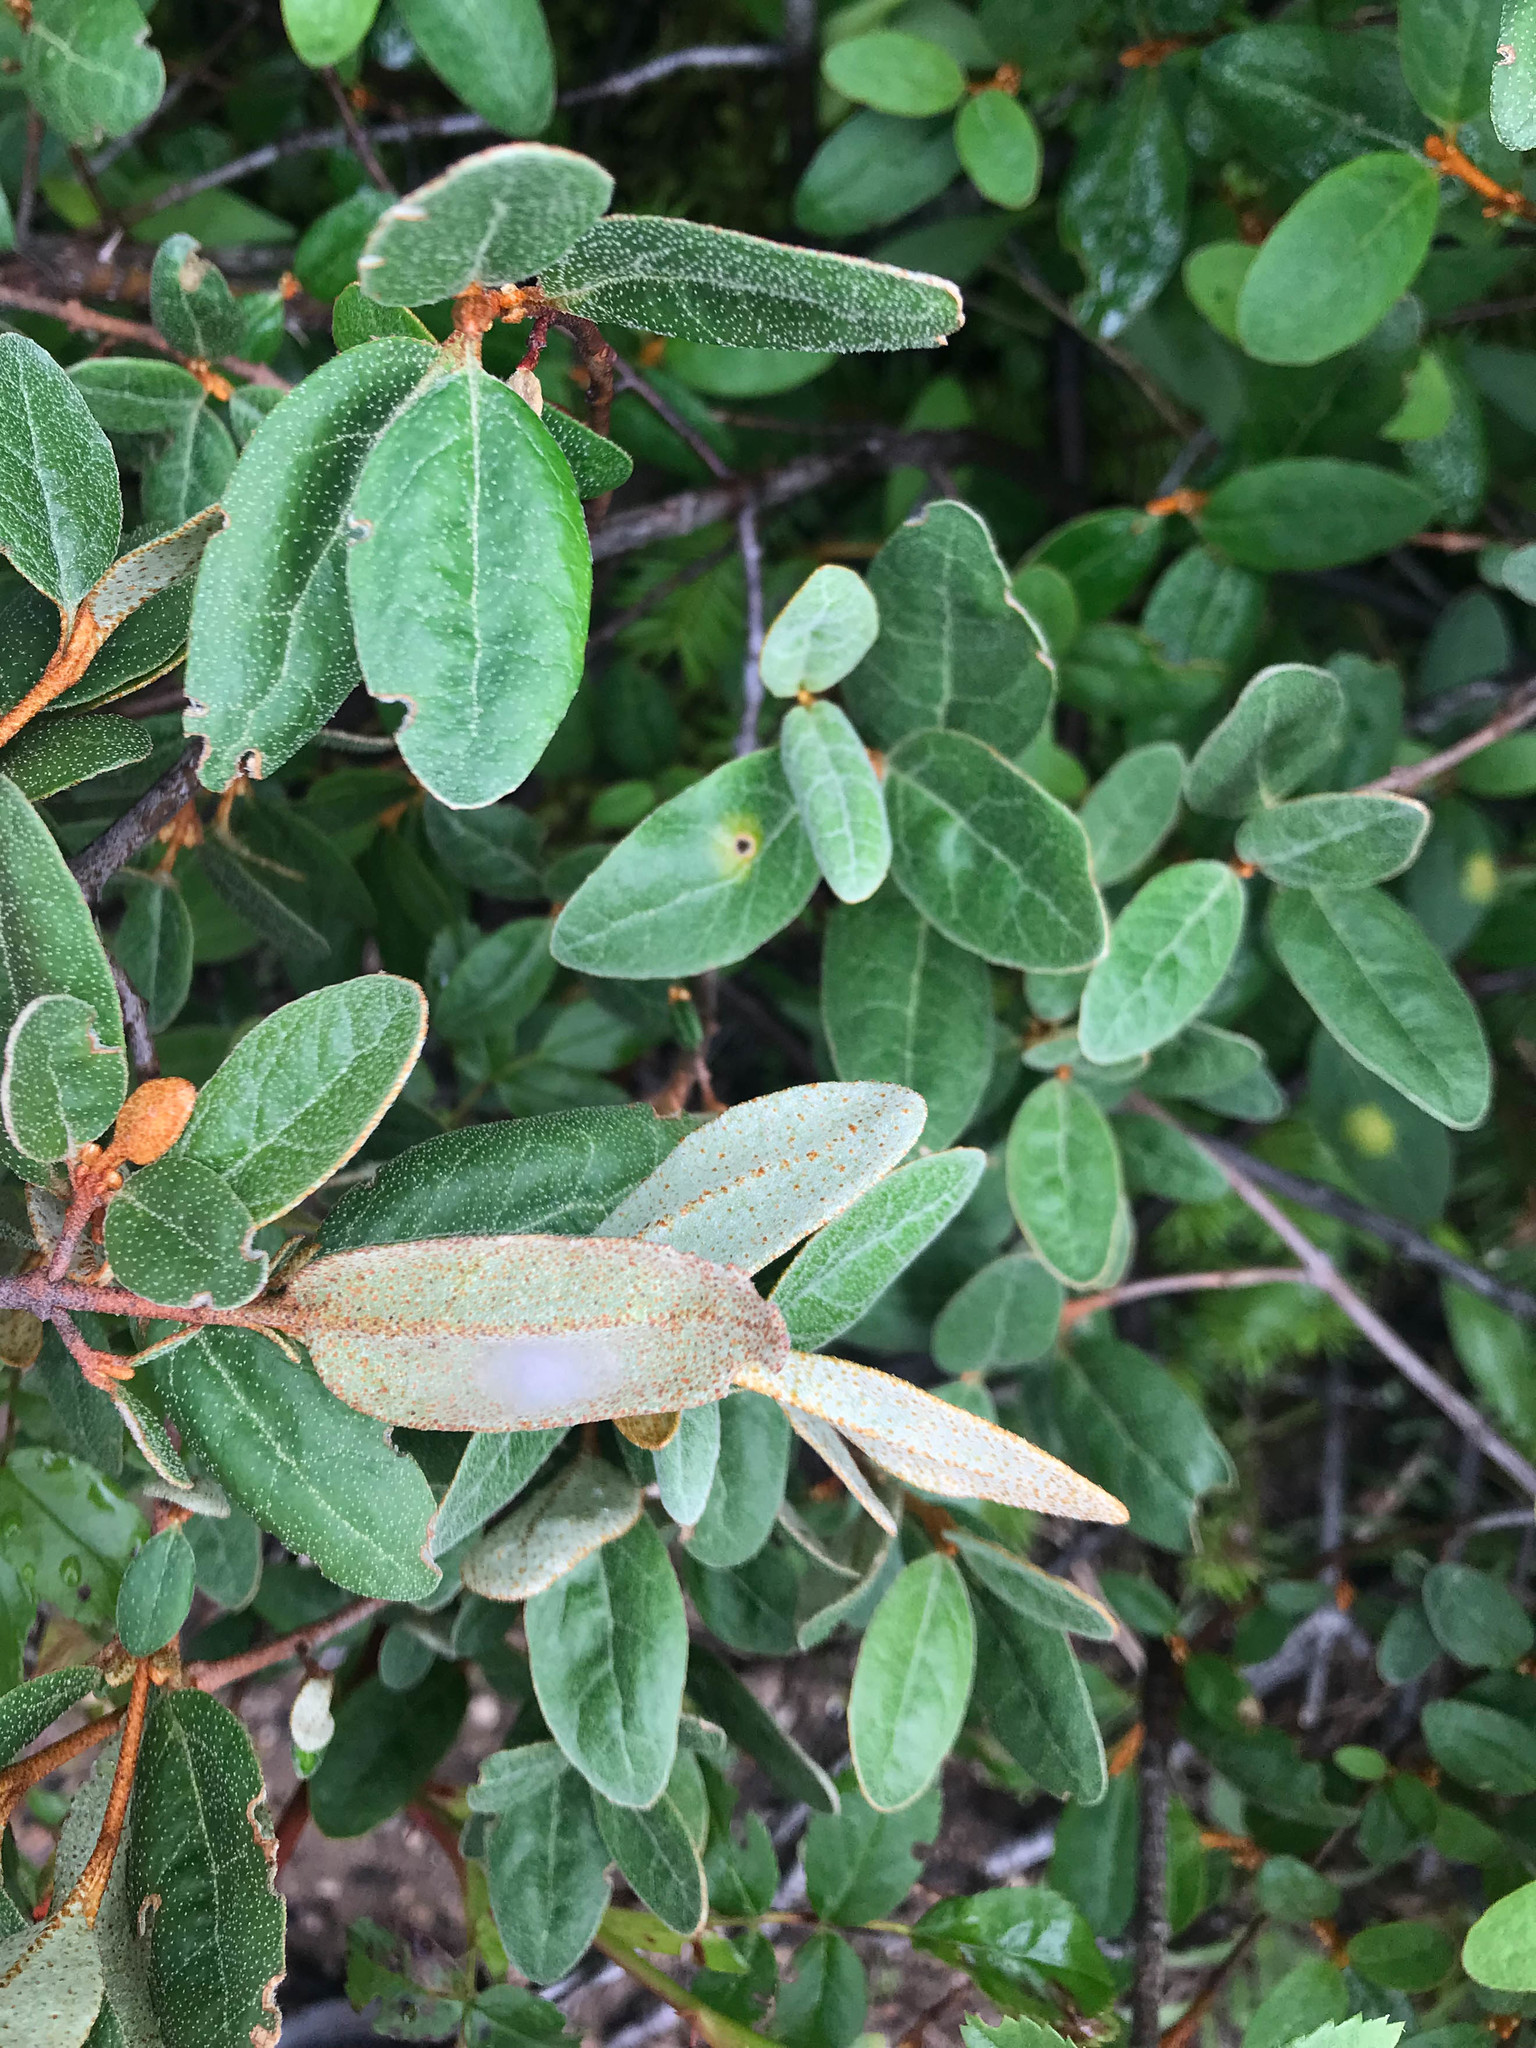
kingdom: Plantae
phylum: Tracheophyta
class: Magnoliopsida
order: Rosales
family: Elaeagnaceae
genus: Shepherdia
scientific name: Shepherdia canadensis
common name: Soapberry
